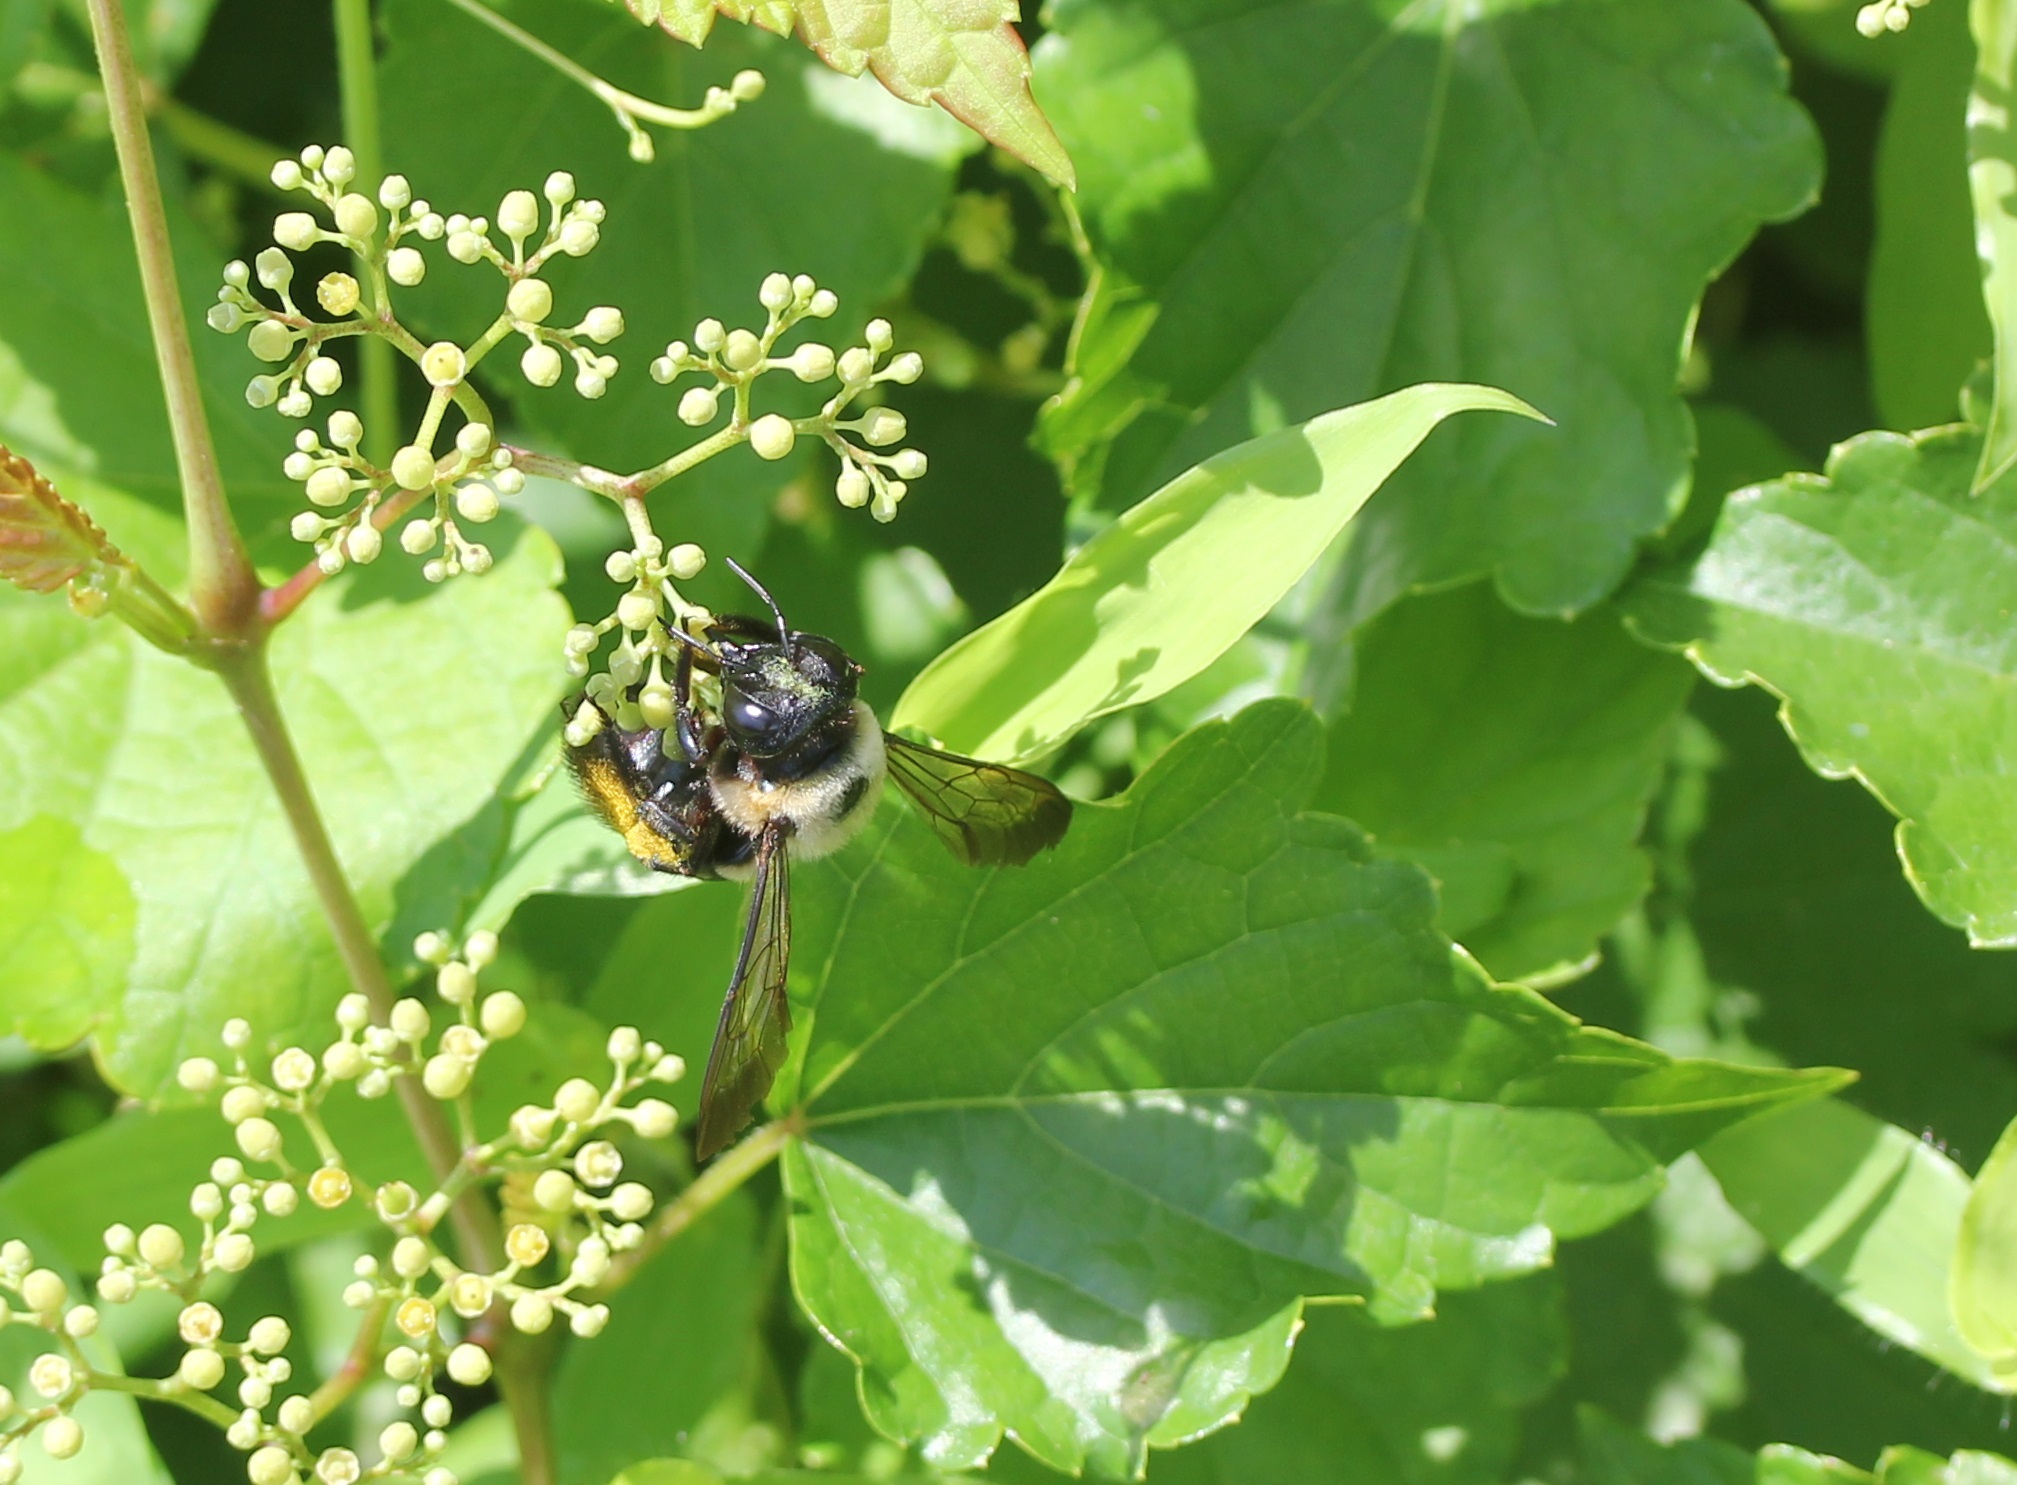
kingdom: Animalia
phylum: Arthropoda
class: Insecta
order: Hymenoptera
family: Apidae
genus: Xylocopa
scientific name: Xylocopa virginica
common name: Carpenter bee
